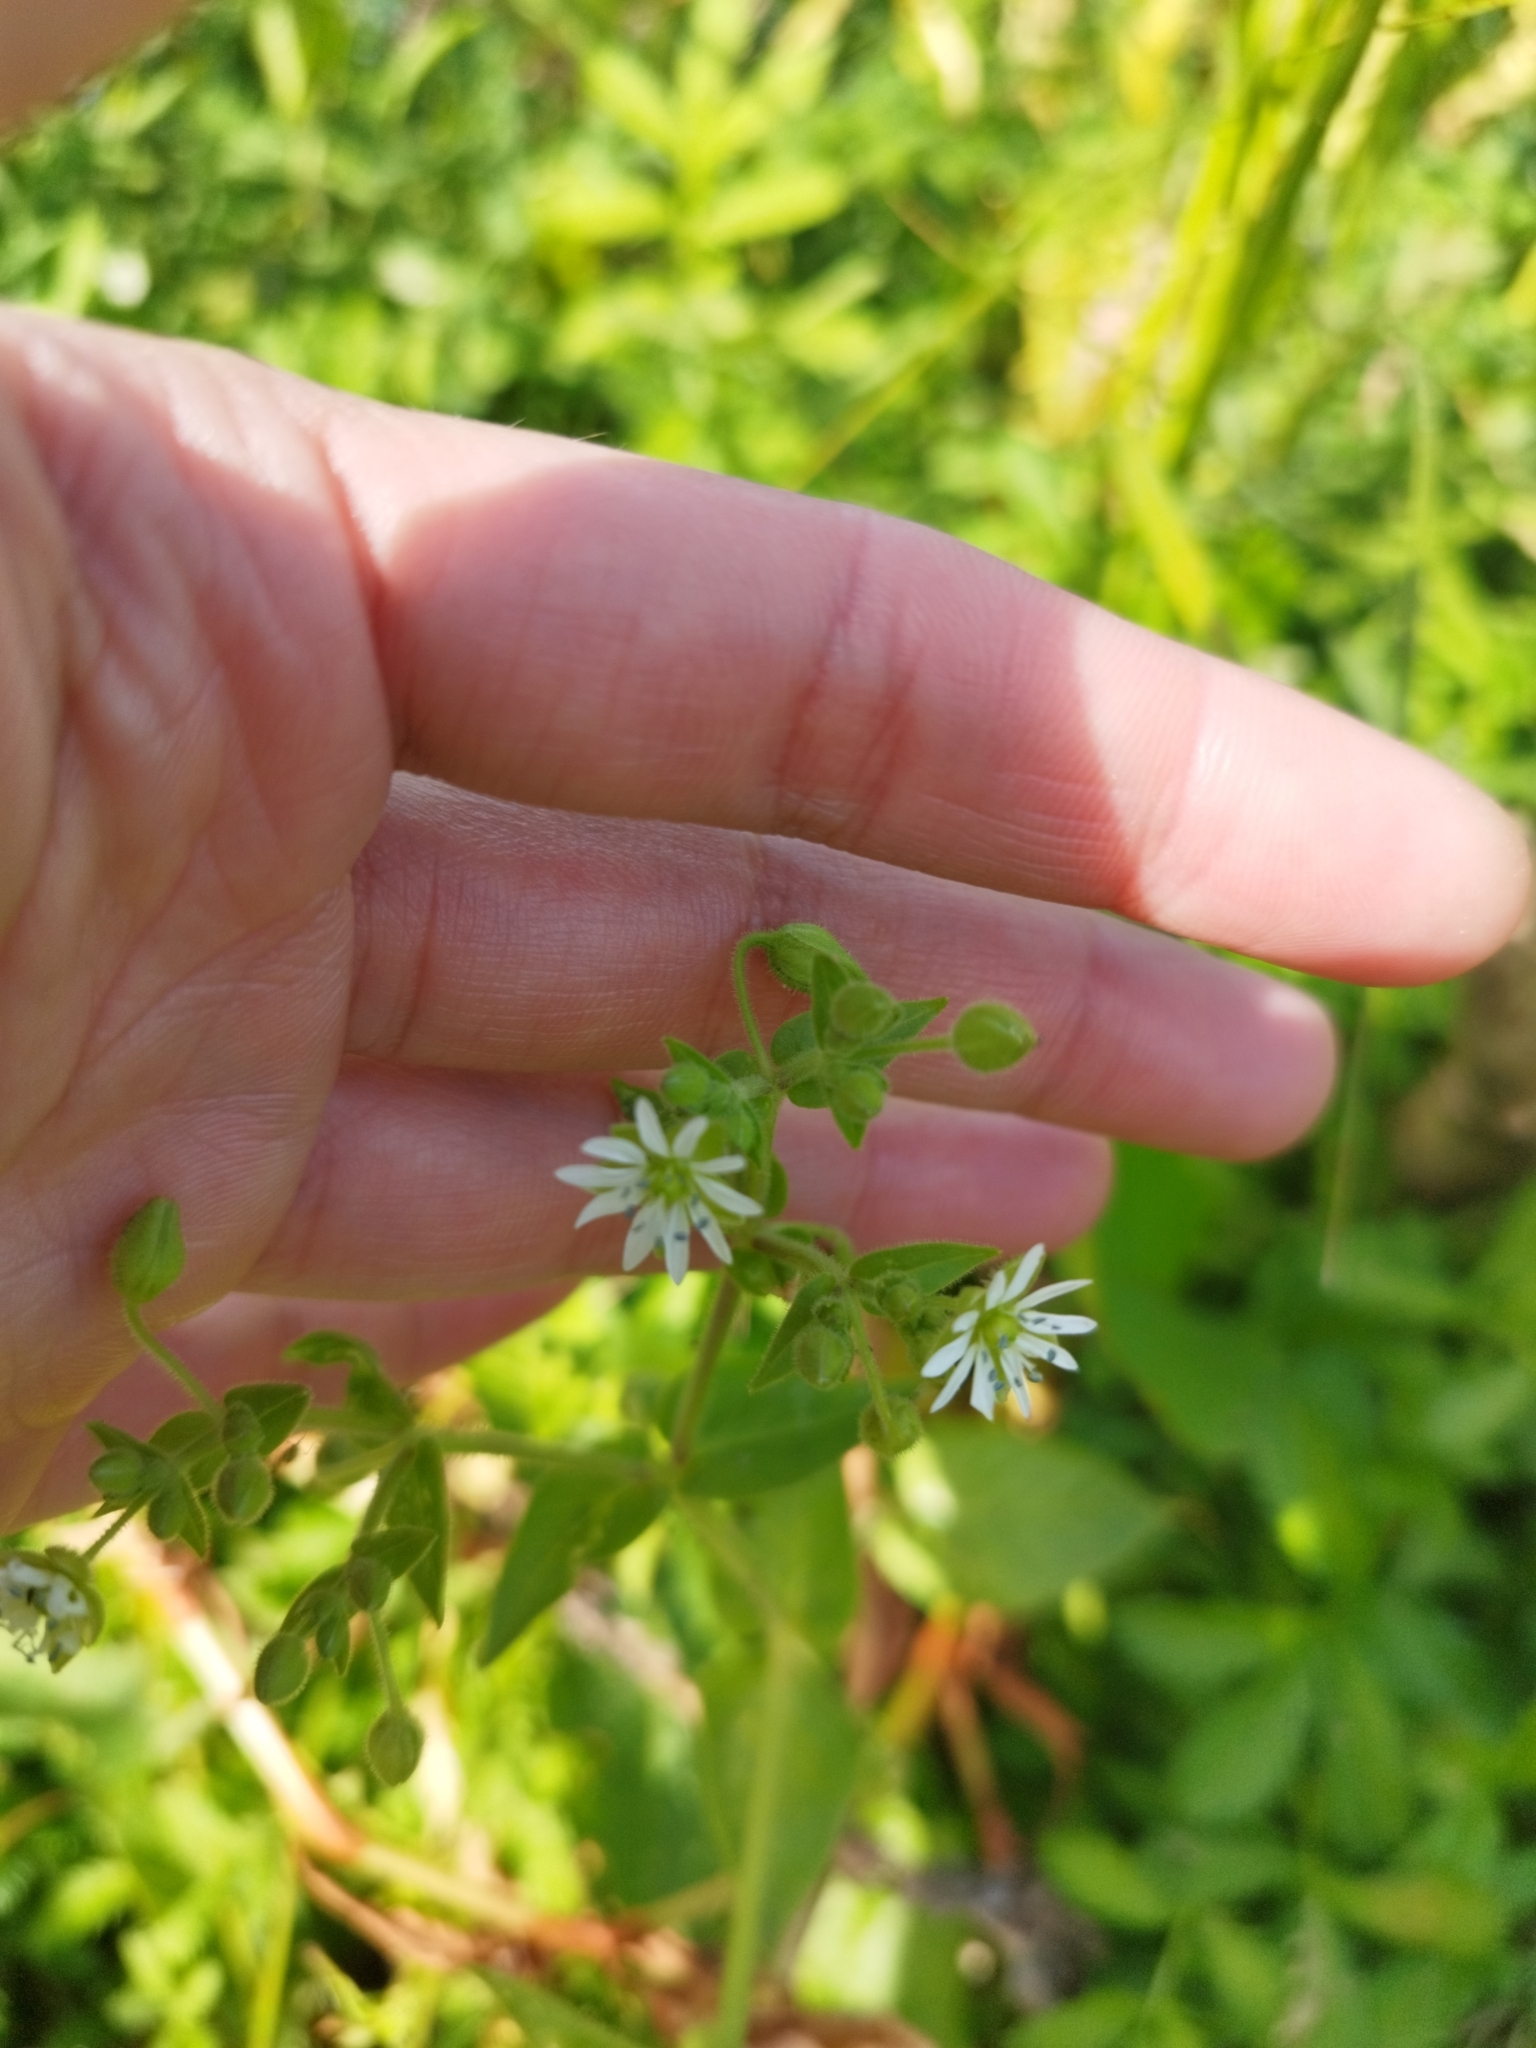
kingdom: Plantae
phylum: Tracheophyta
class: Magnoliopsida
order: Caryophyllales
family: Caryophyllaceae
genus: Stellaria
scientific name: Stellaria aquatica
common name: Water chickweed
